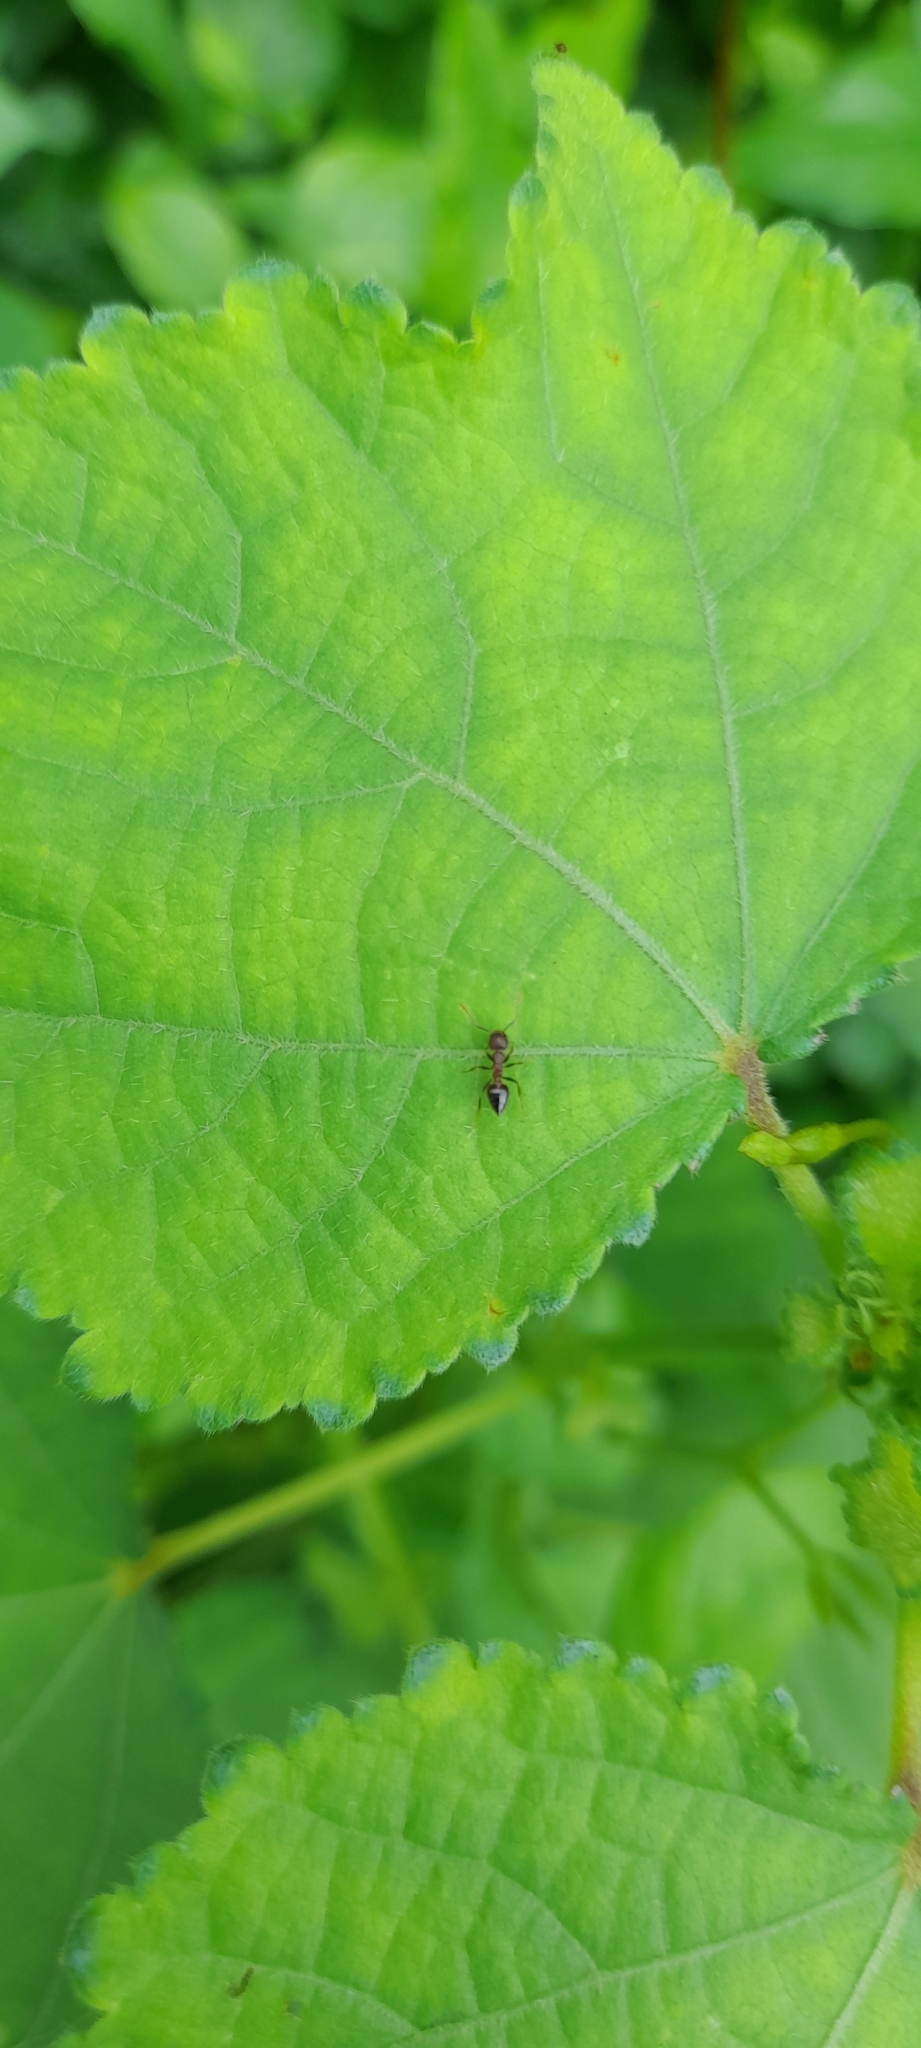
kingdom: Animalia
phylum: Arthropoda
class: Insecta
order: Hymenoptera
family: Formicidae
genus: Crematogaster
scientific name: Crematogaster rothneyi
